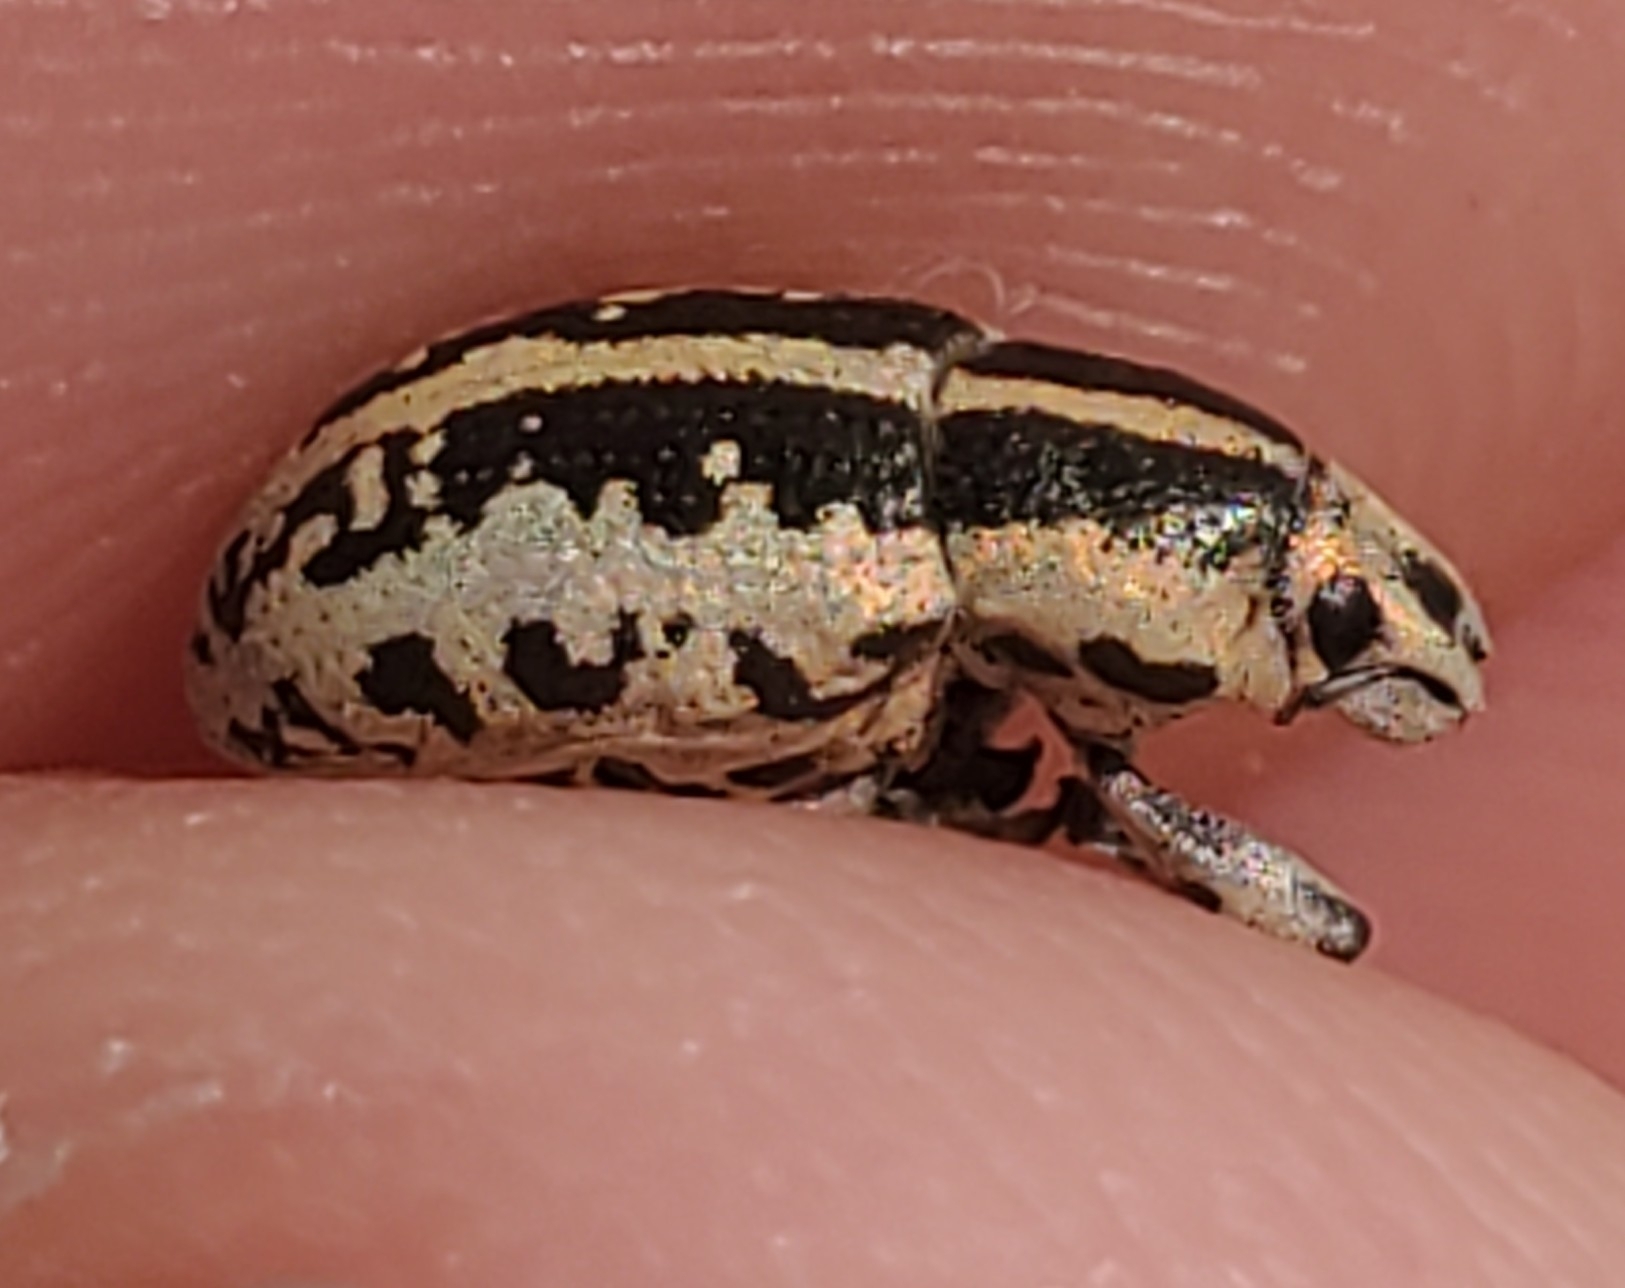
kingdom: Animalia
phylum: Arthropoda
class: Insecta
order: Coleoptera
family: Curculionidae
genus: Eudiagogus
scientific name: Eudiagogus rosenschoeldi
